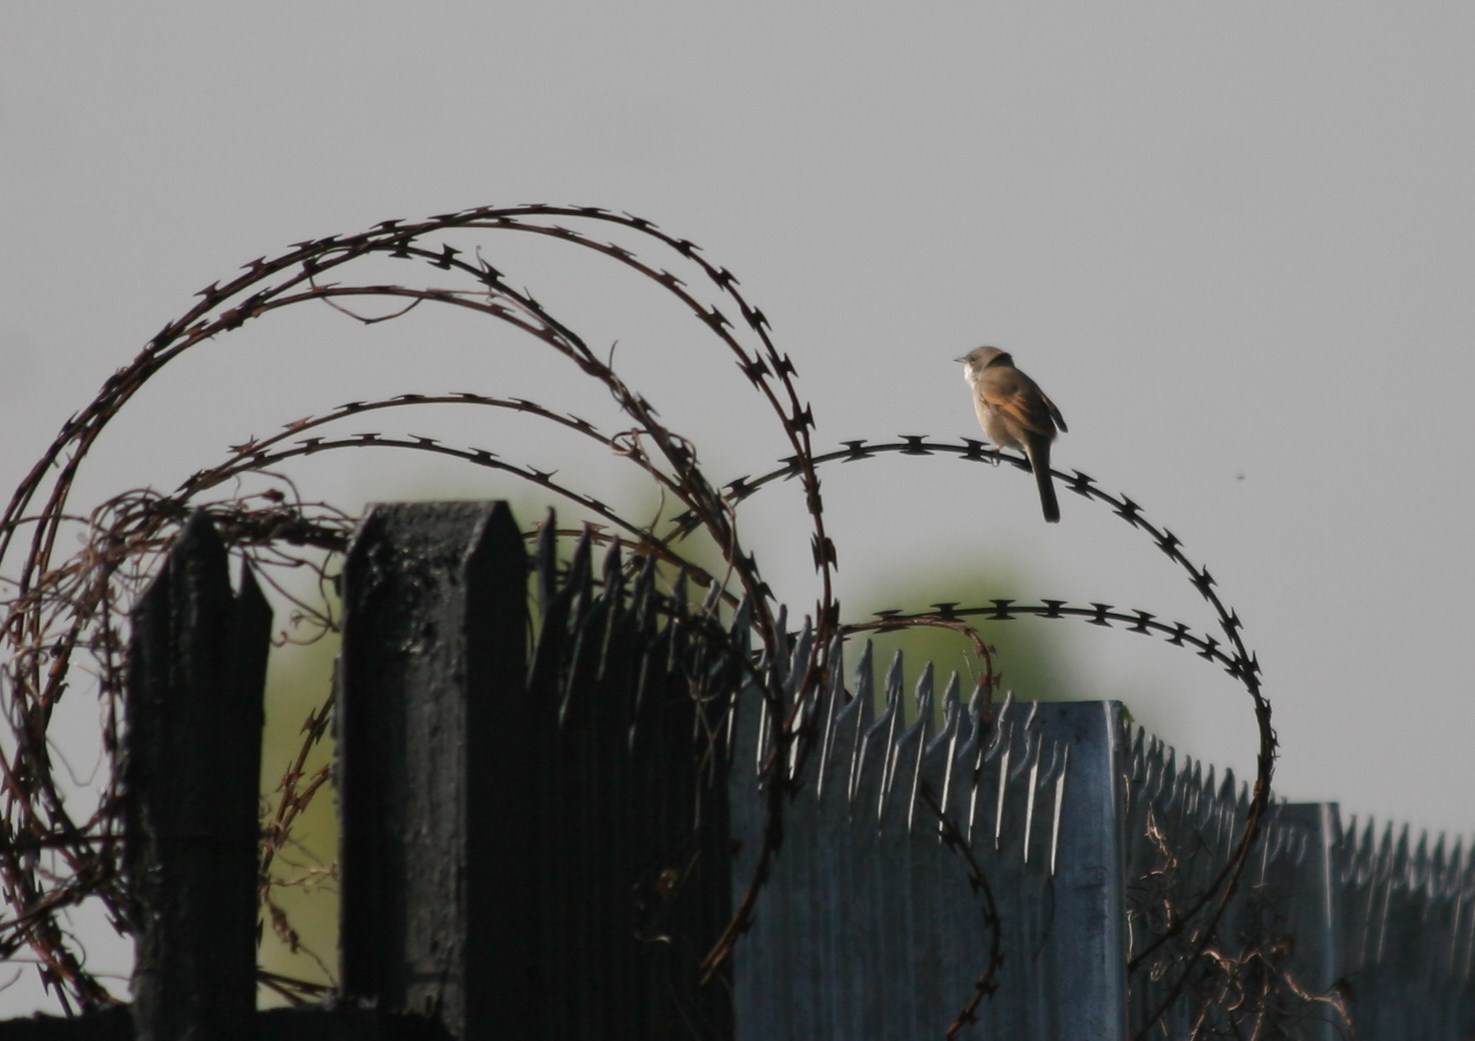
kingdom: Animalia
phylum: Chordata
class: Aves
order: Passeriformes
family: Sylviidae
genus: Sylvia
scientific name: Sylvia communis
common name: Common whitethroat
